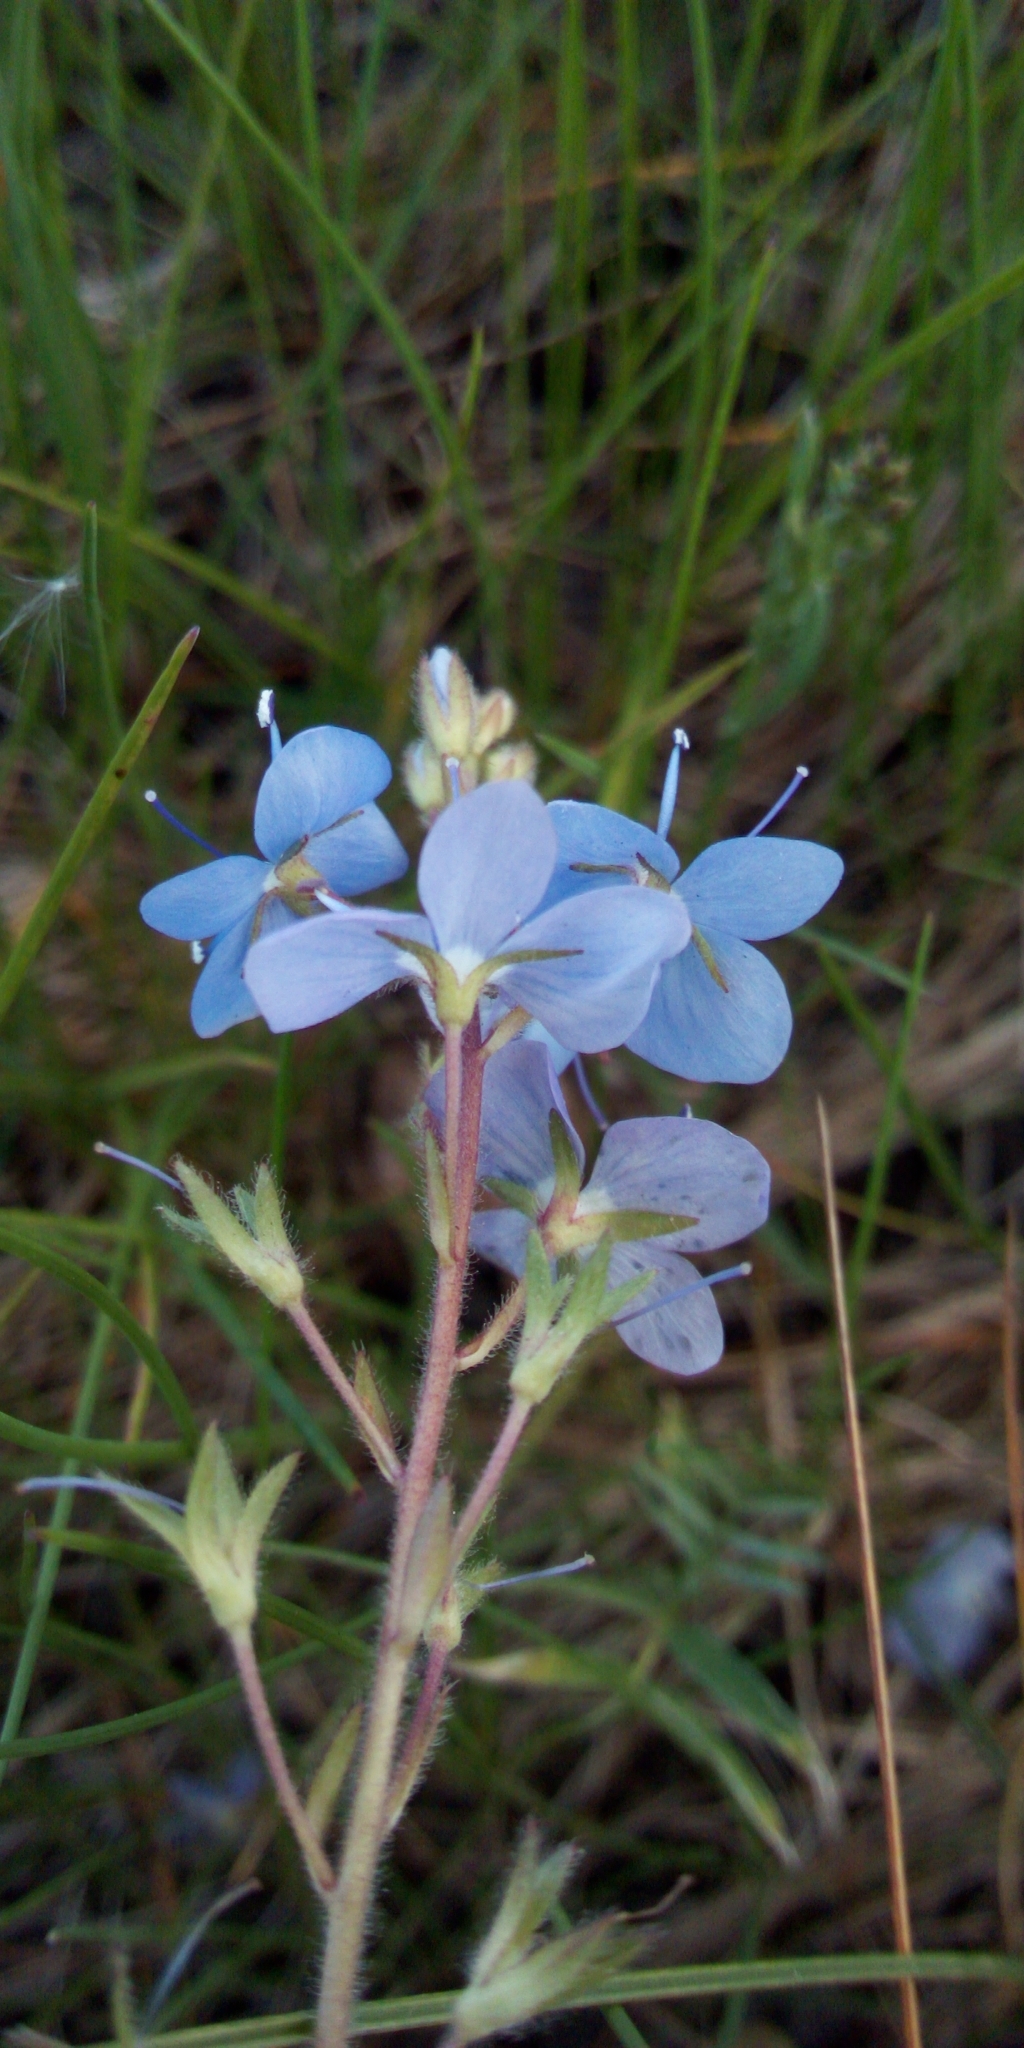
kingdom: Plantae
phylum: Tracheophyta
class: Magnoliopsida
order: Lamiales
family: Plantaginaceae
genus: Veronica
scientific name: Veronica chamaedrys
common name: Germander speedwell
